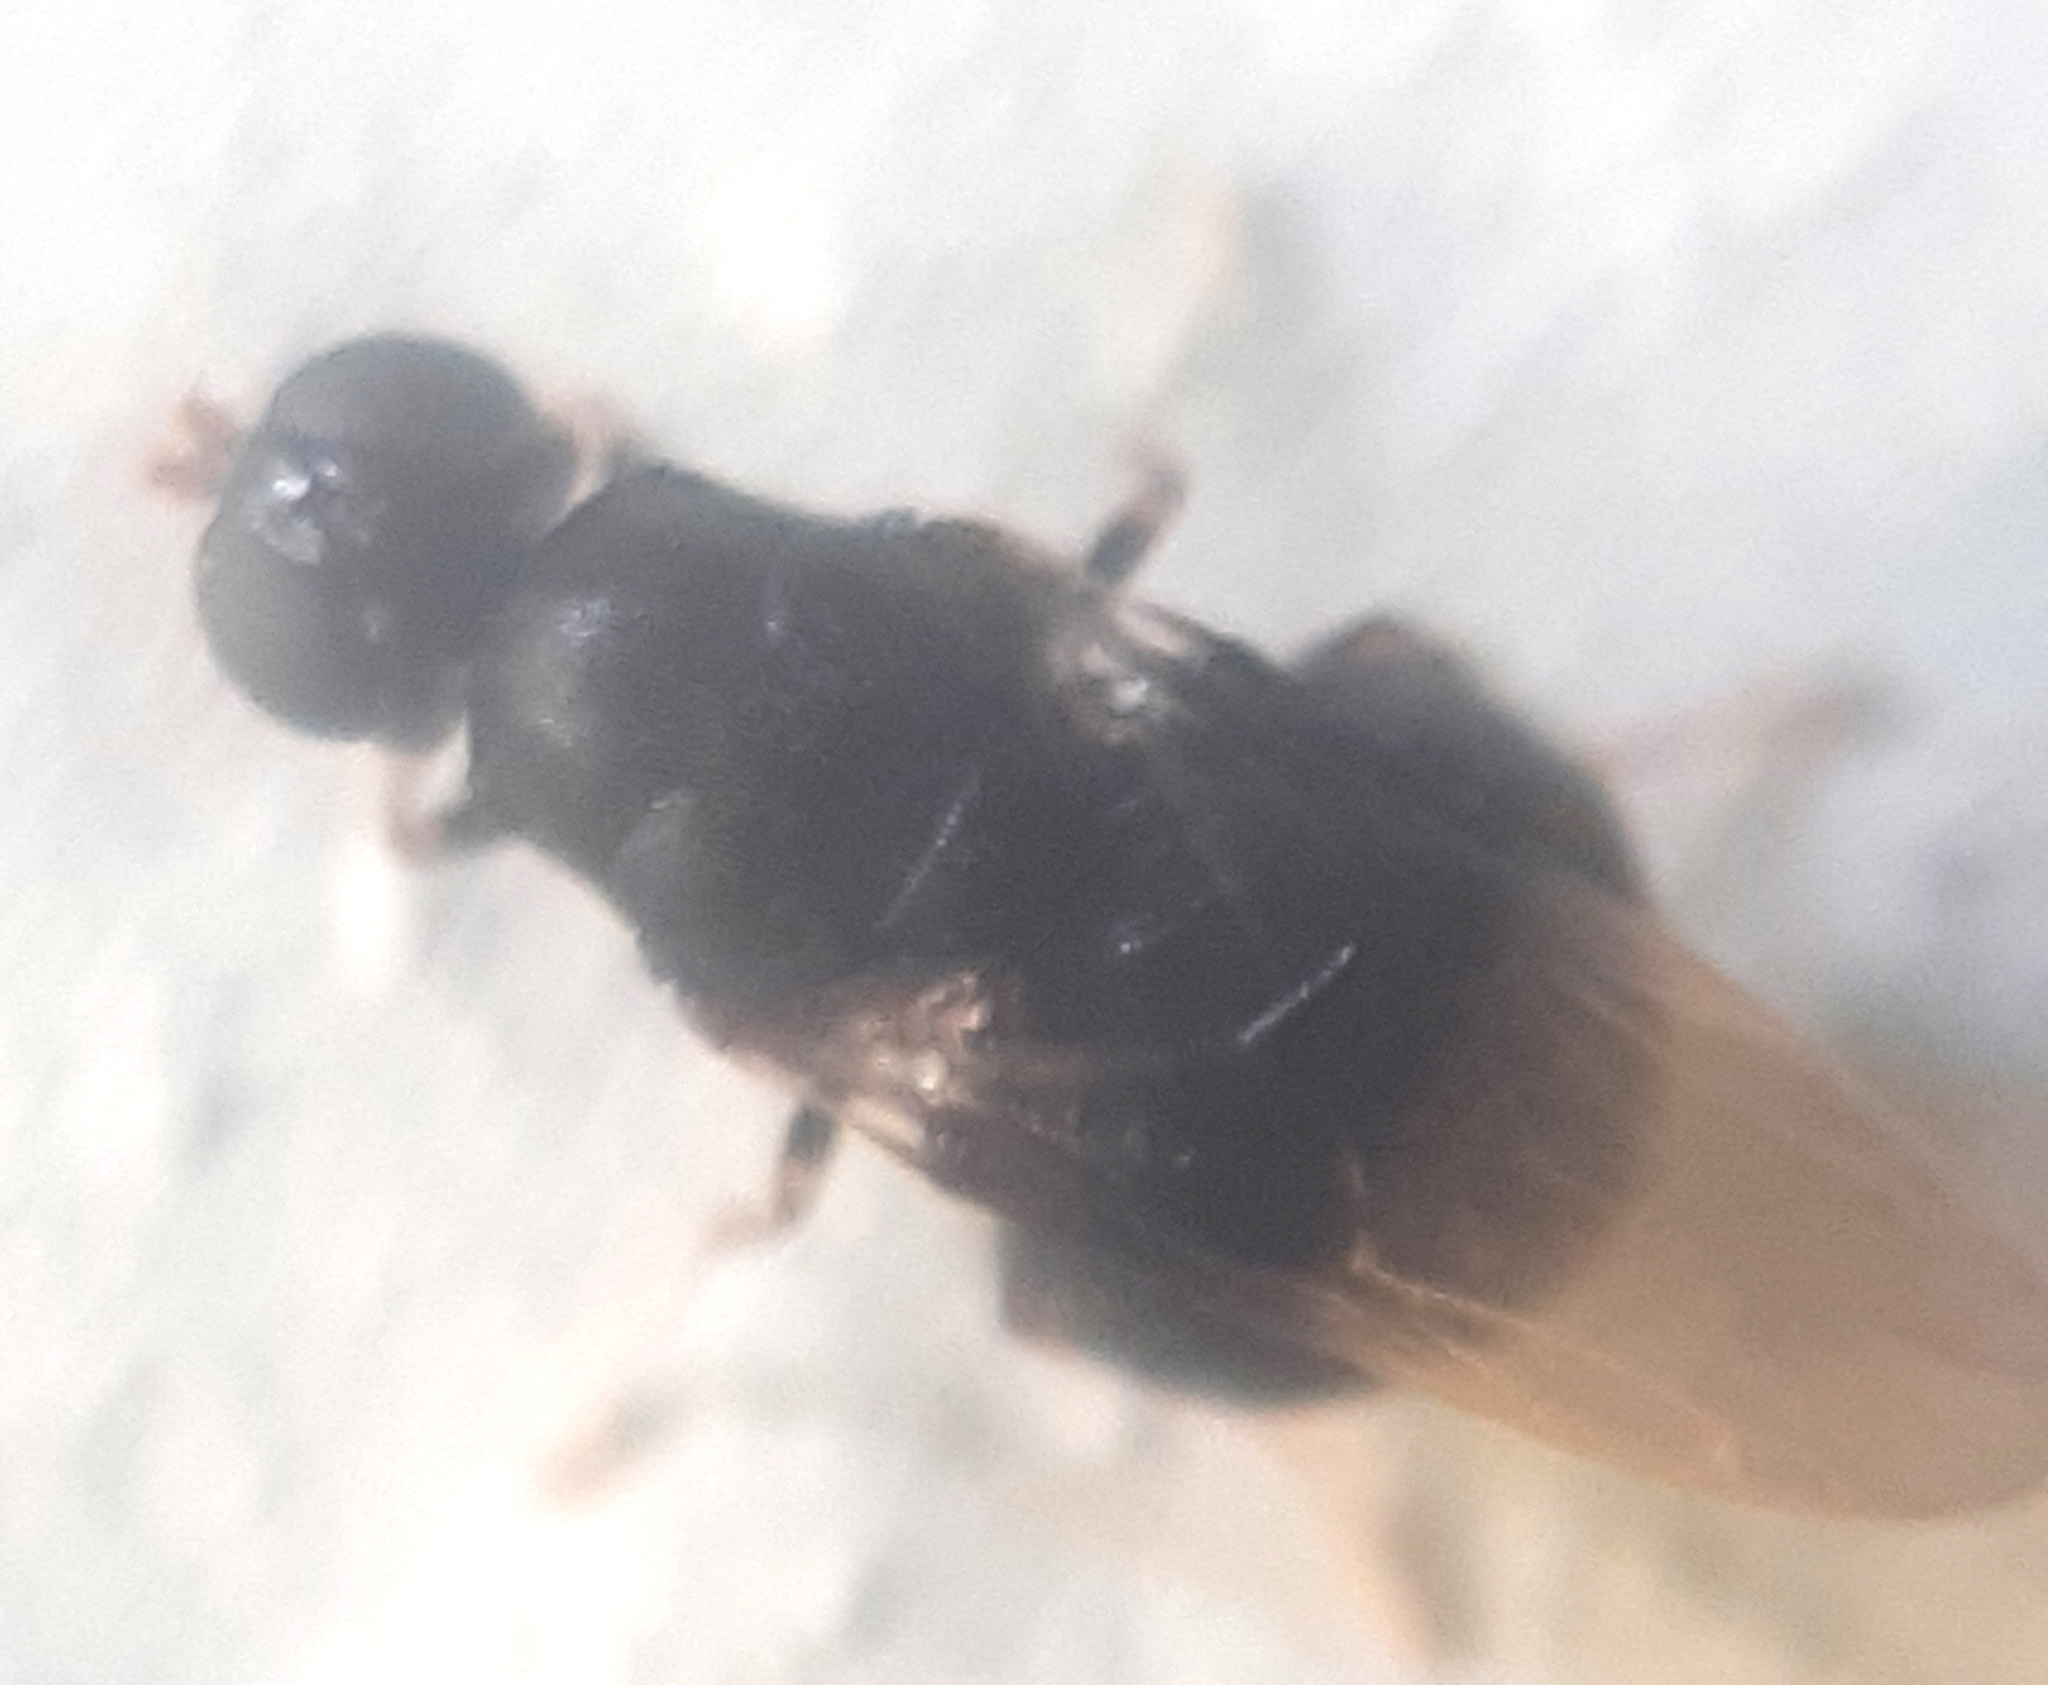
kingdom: Animalia
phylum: Arthropoda
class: Insecta
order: Diptera
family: Stratiomyidae
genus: Pachygaster
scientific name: Pachygaster atra
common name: Dark-winged black
